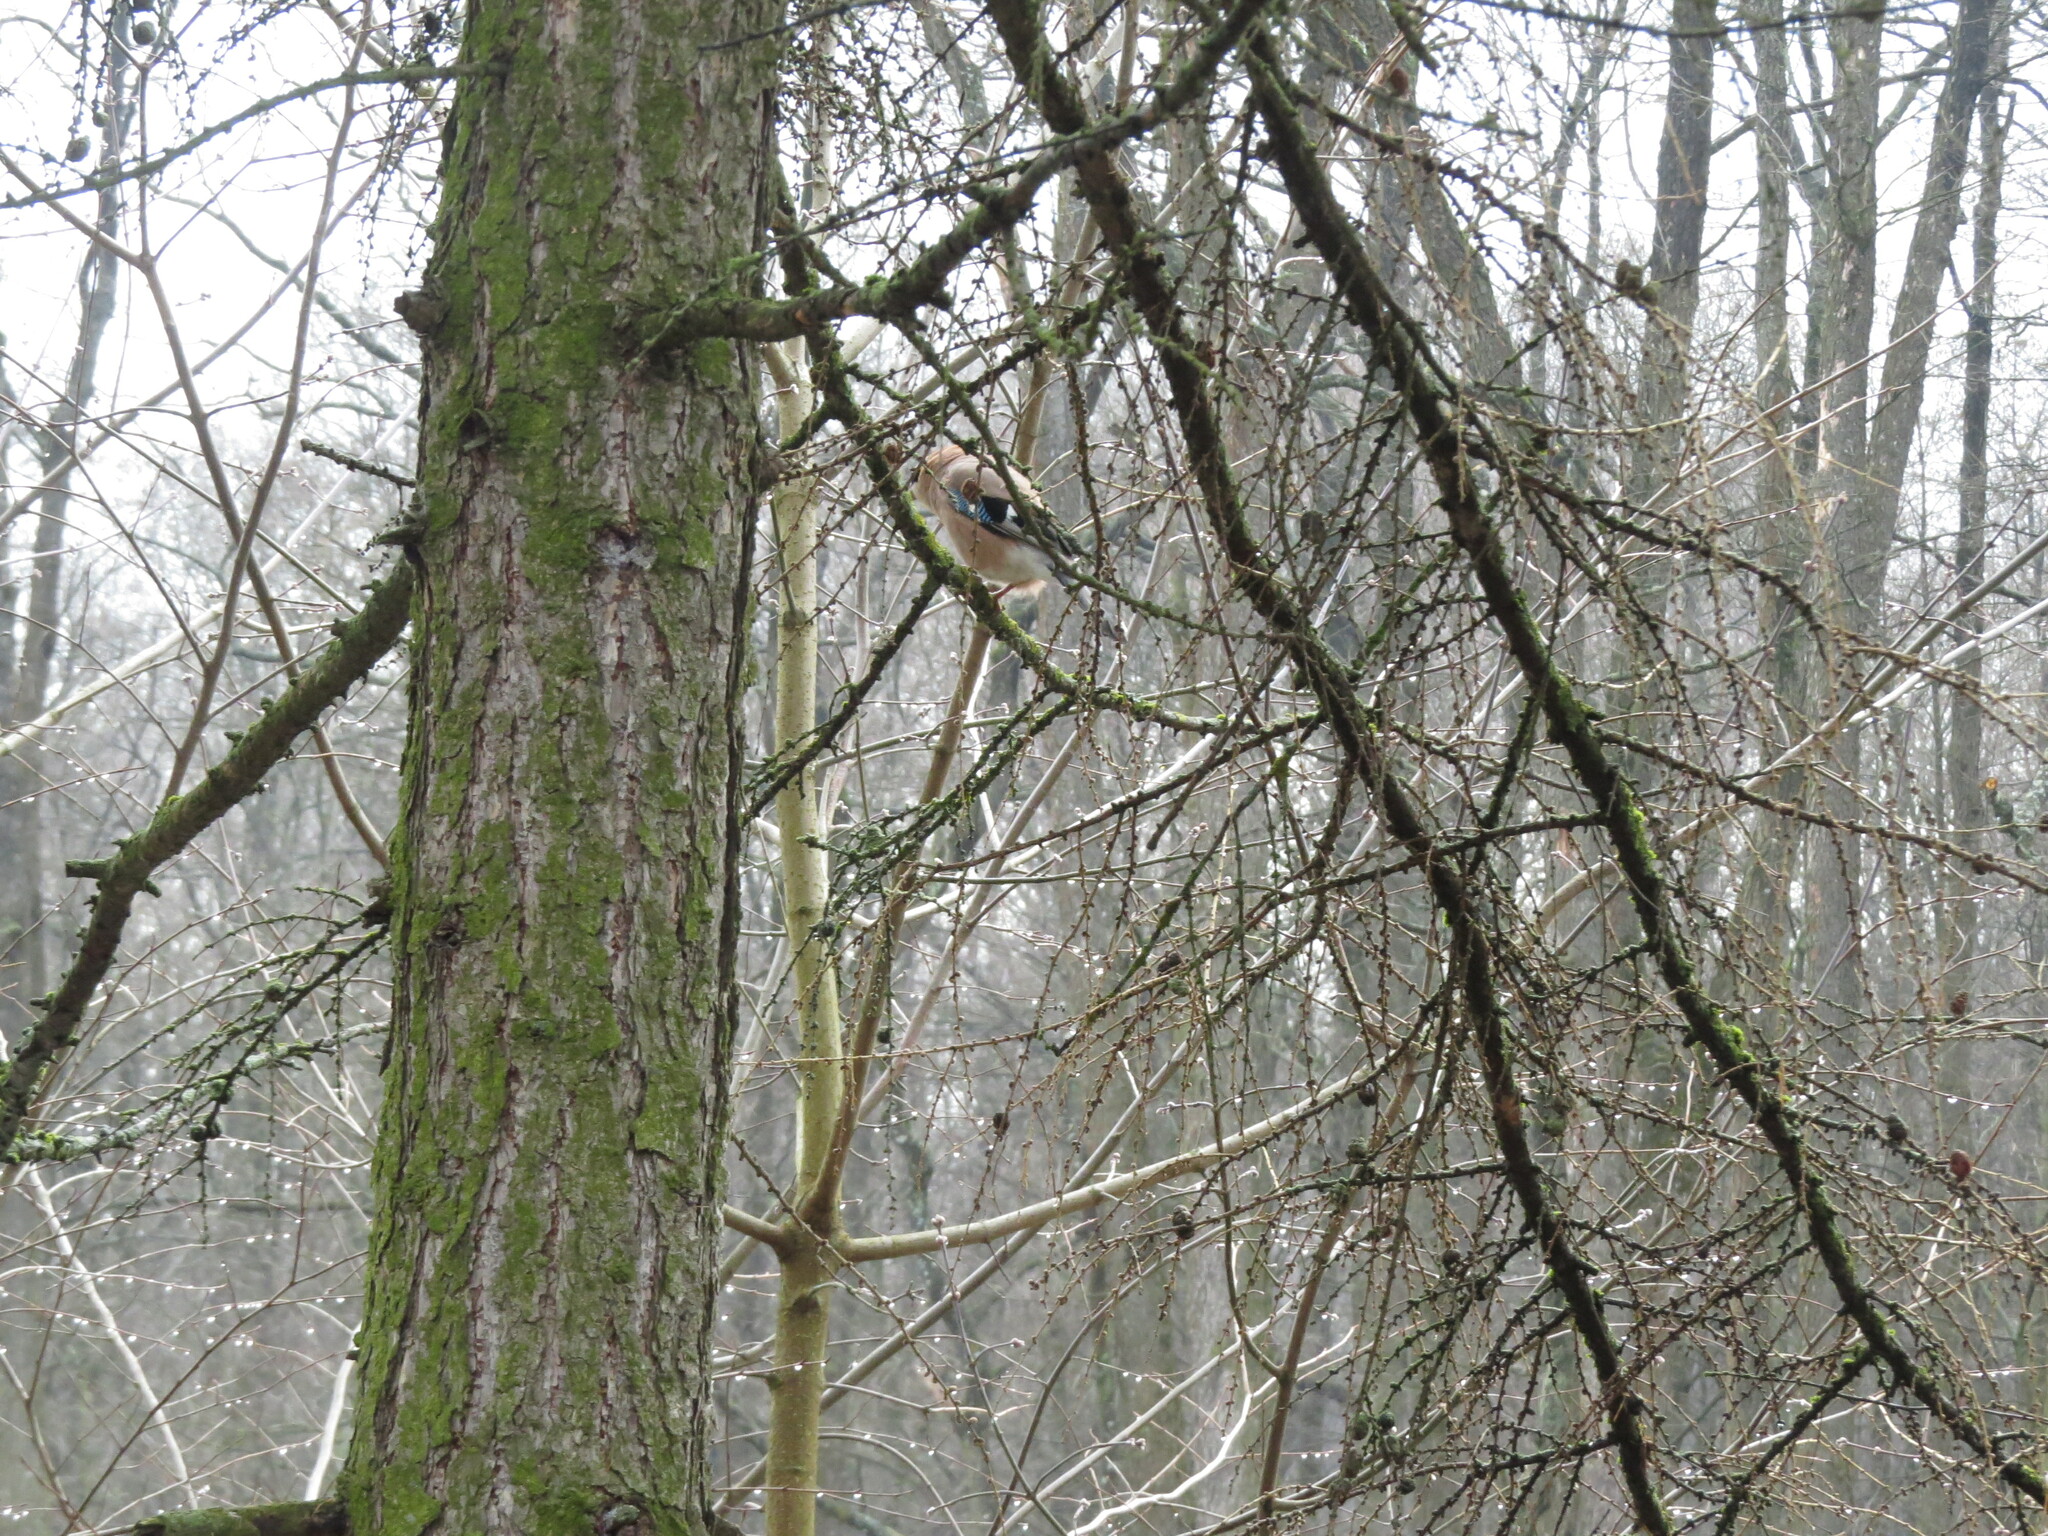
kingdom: Animalia
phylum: Chordata
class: Aves
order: Passeriformes
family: Corvidae
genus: Garrulus
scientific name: Garrulus glandarius
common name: Eurasian jay
